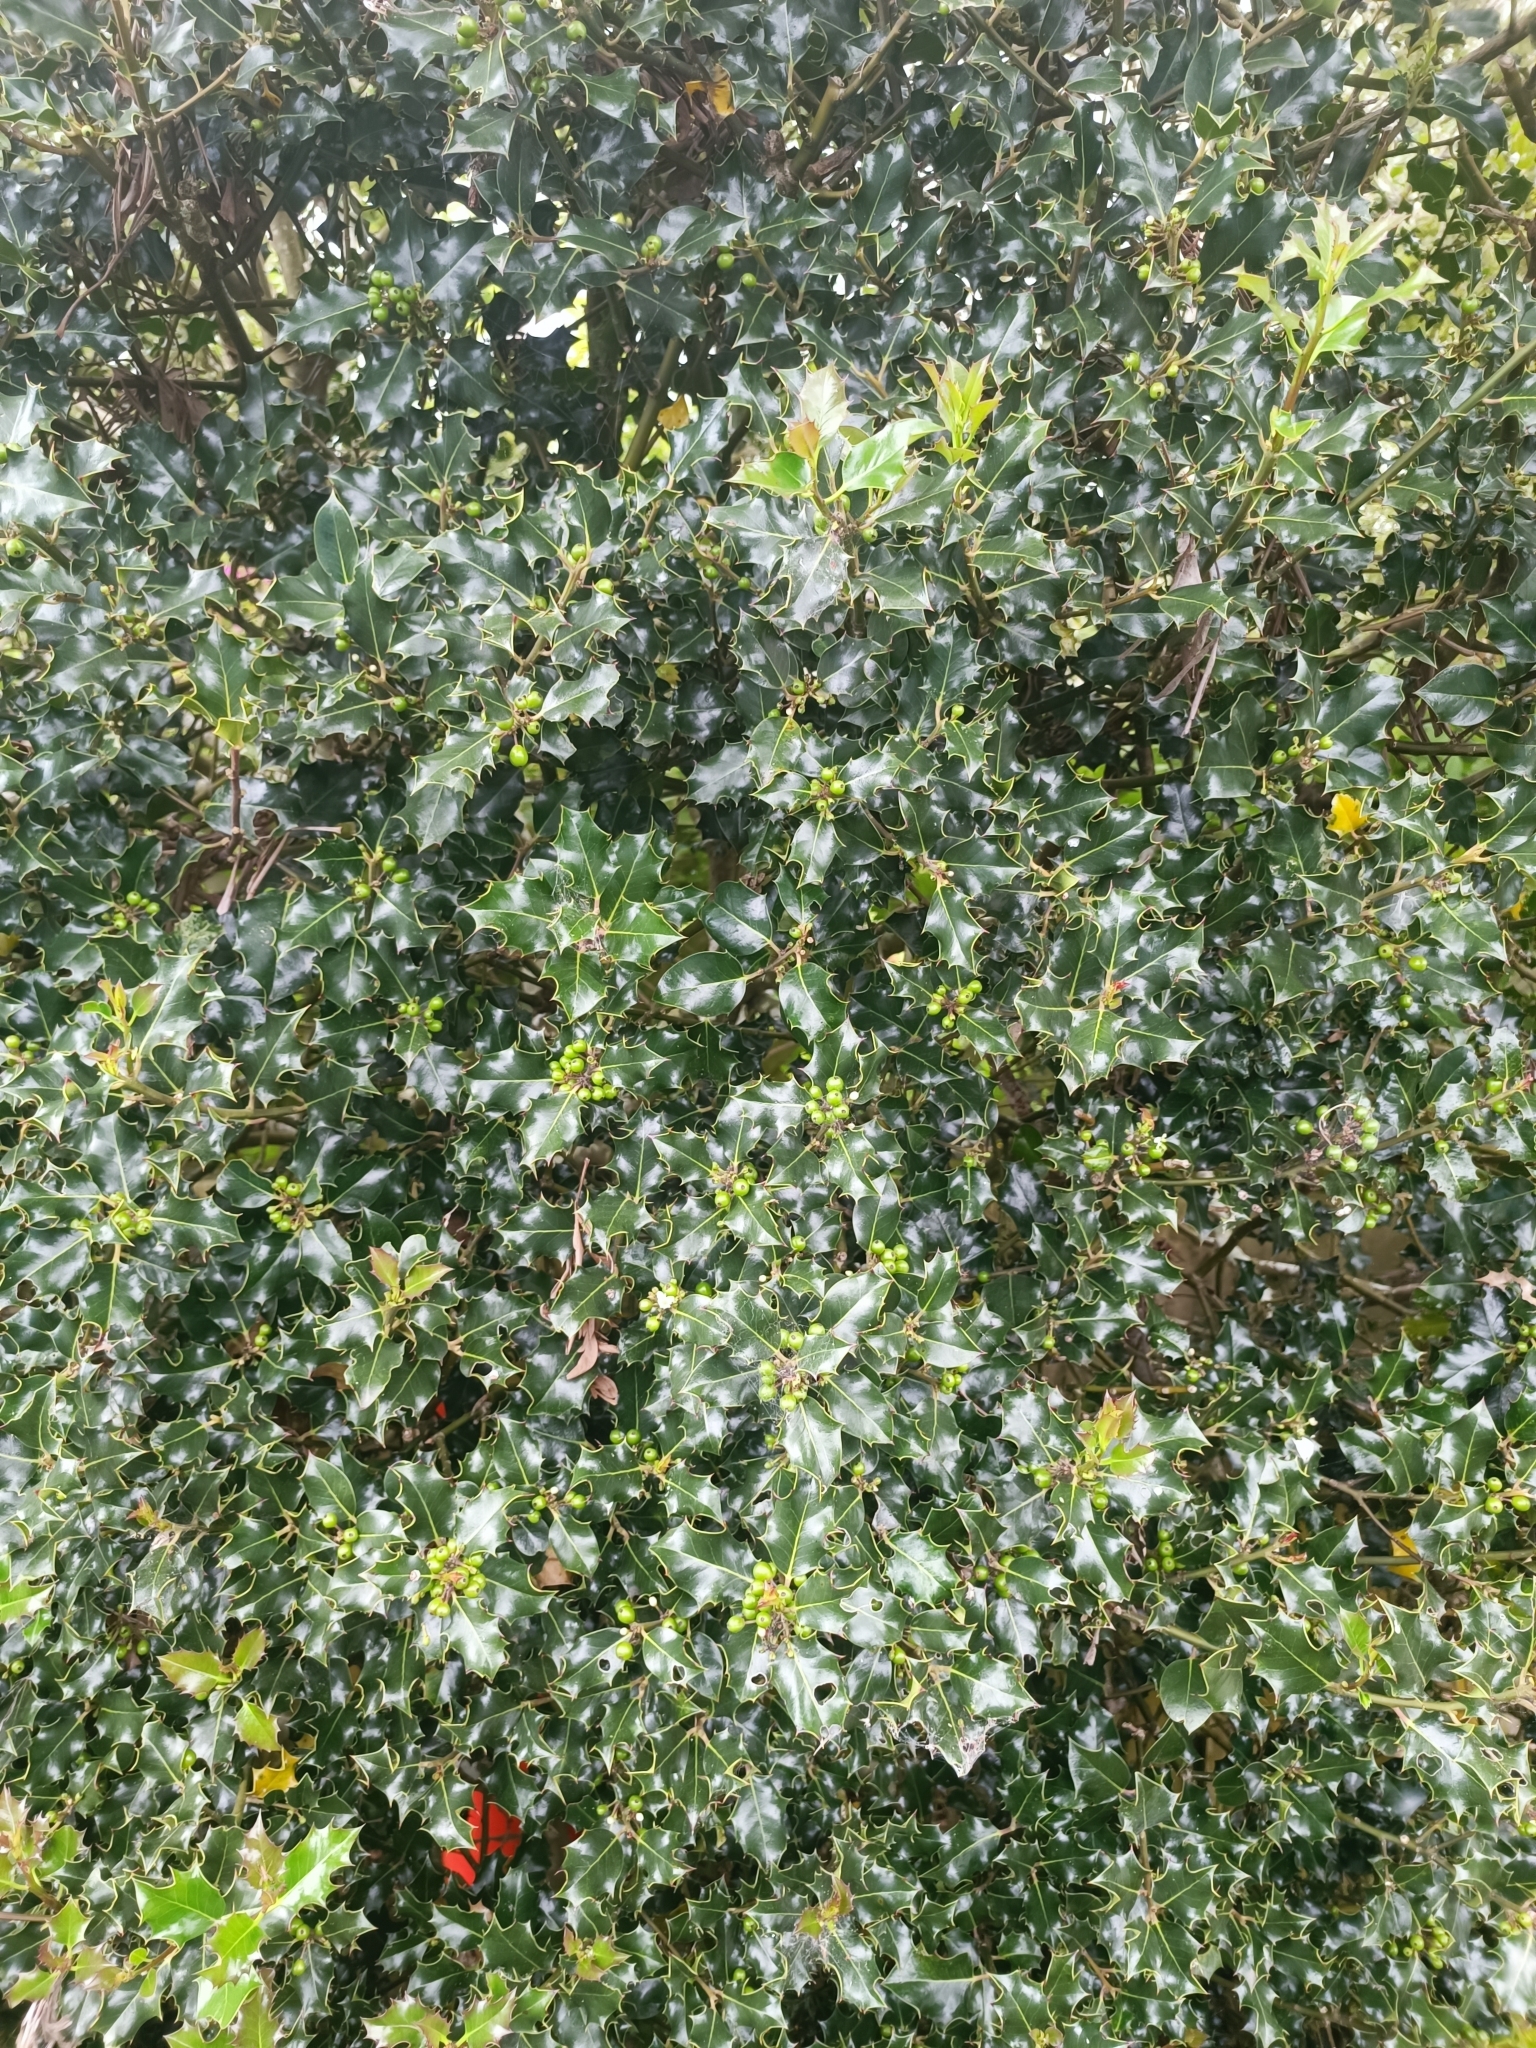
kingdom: Plantae
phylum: Tracheophyta
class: Magnoliopsida
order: Aquifoliales
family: Aquifoliaceae
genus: Ilex
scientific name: Ilex aquifolium
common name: English holly
